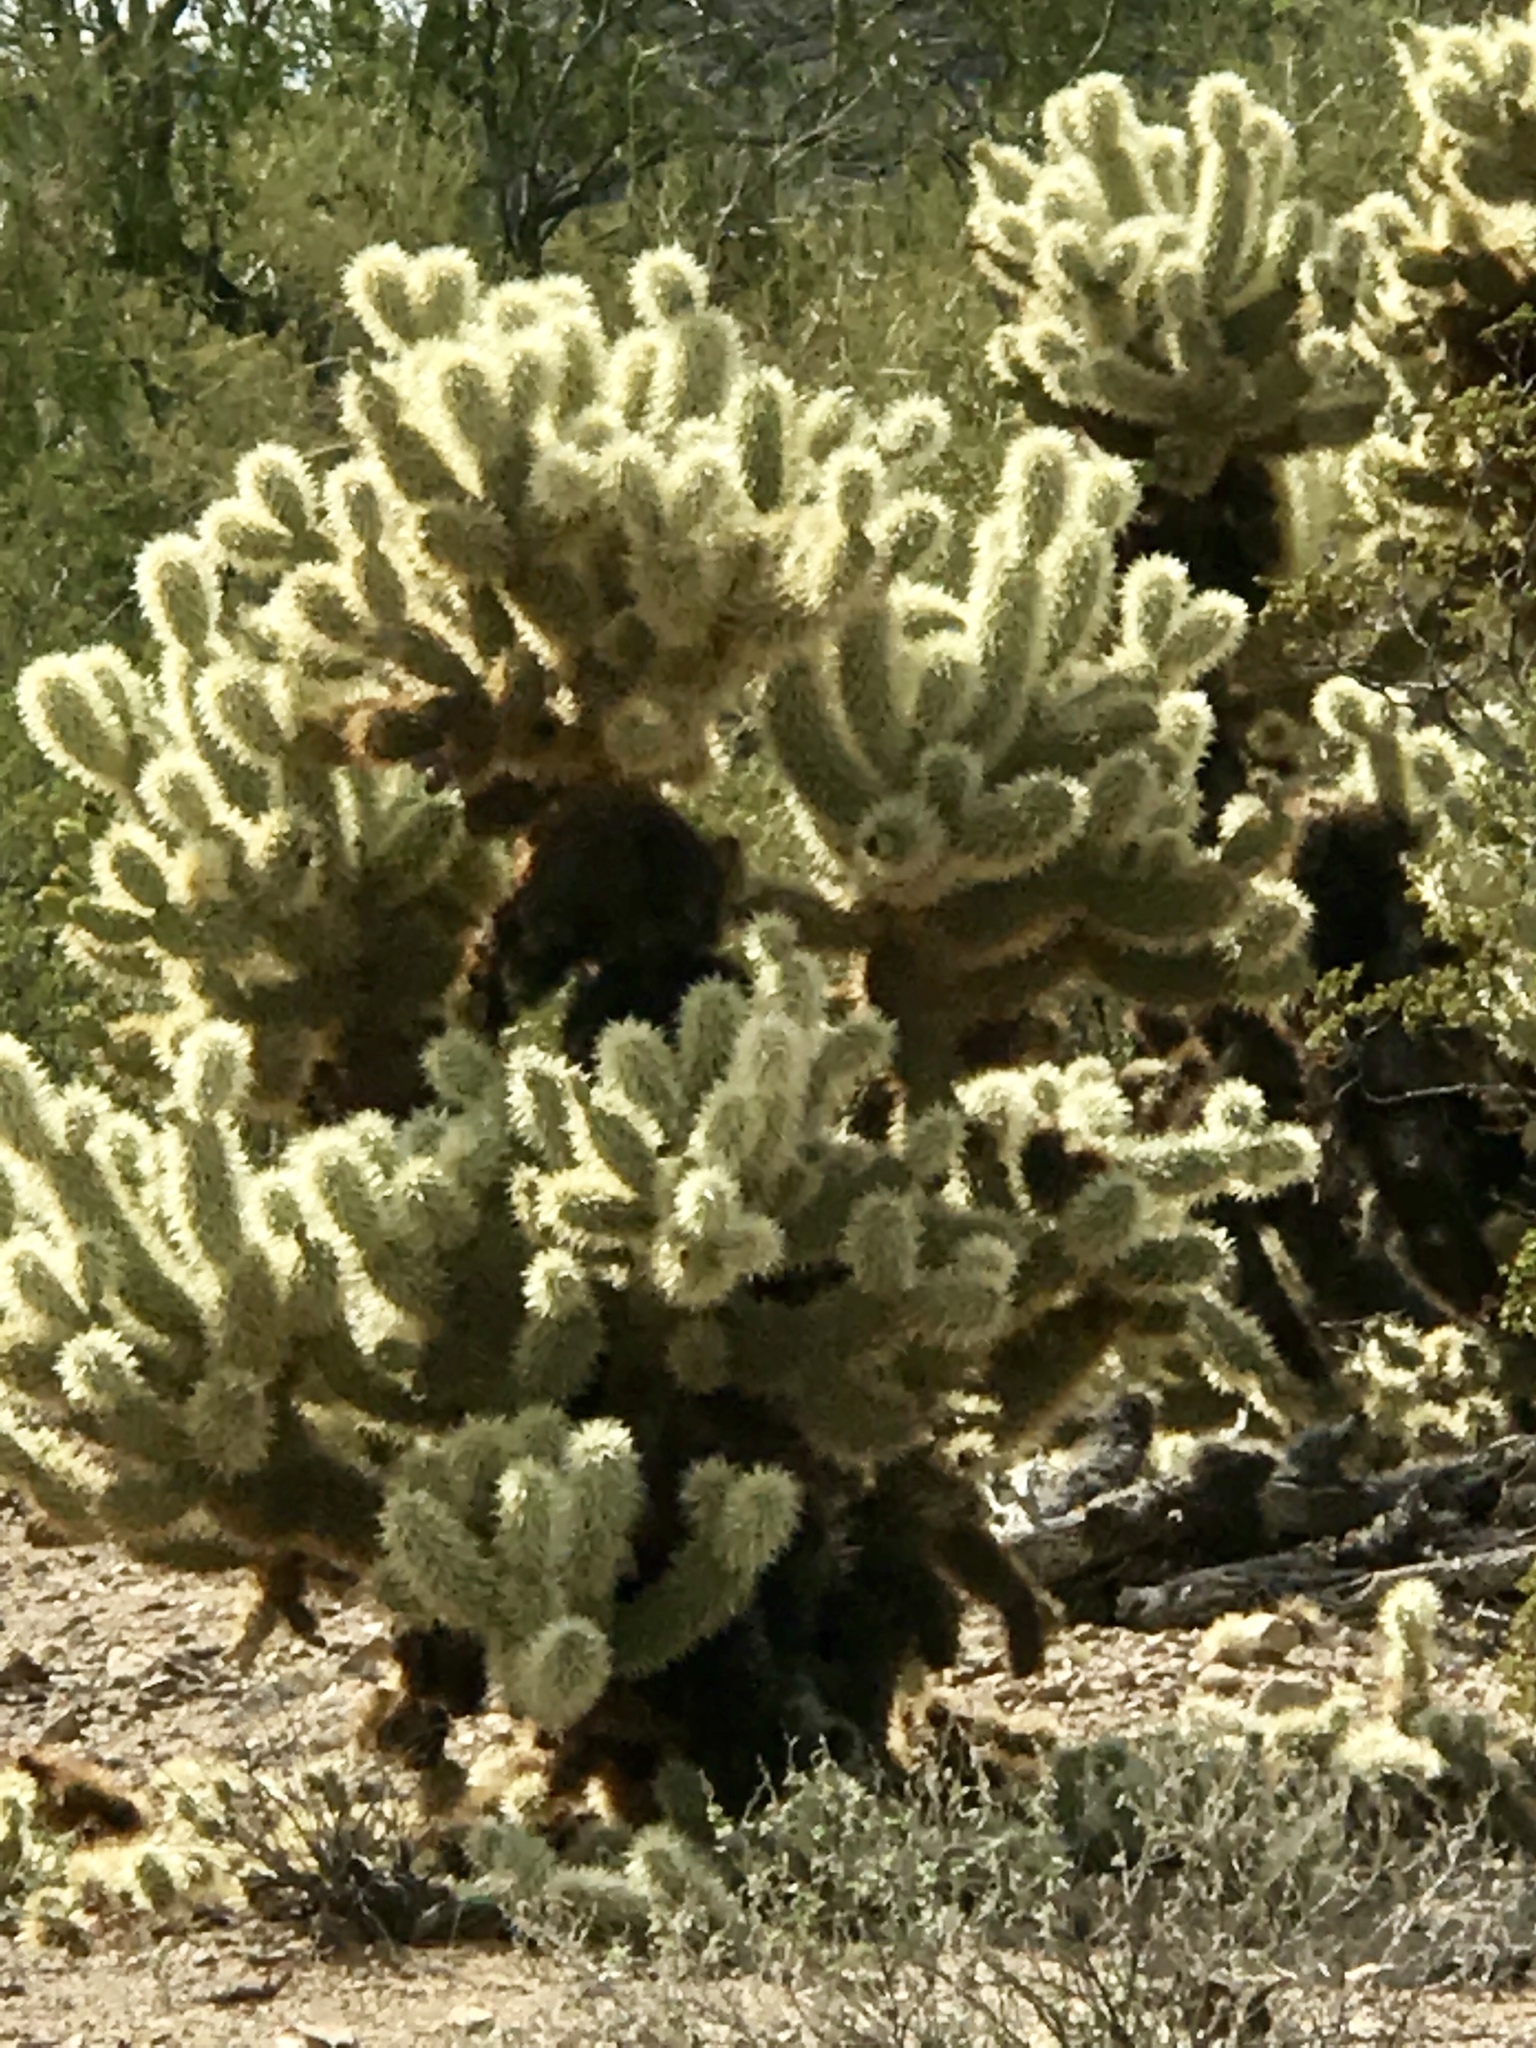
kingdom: Plantae
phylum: Tracheophyta
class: Magnoliopsida
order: Caryophyllales
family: Cactaceae
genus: Cylindropuntia
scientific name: Cylindropuntia fosbergii
